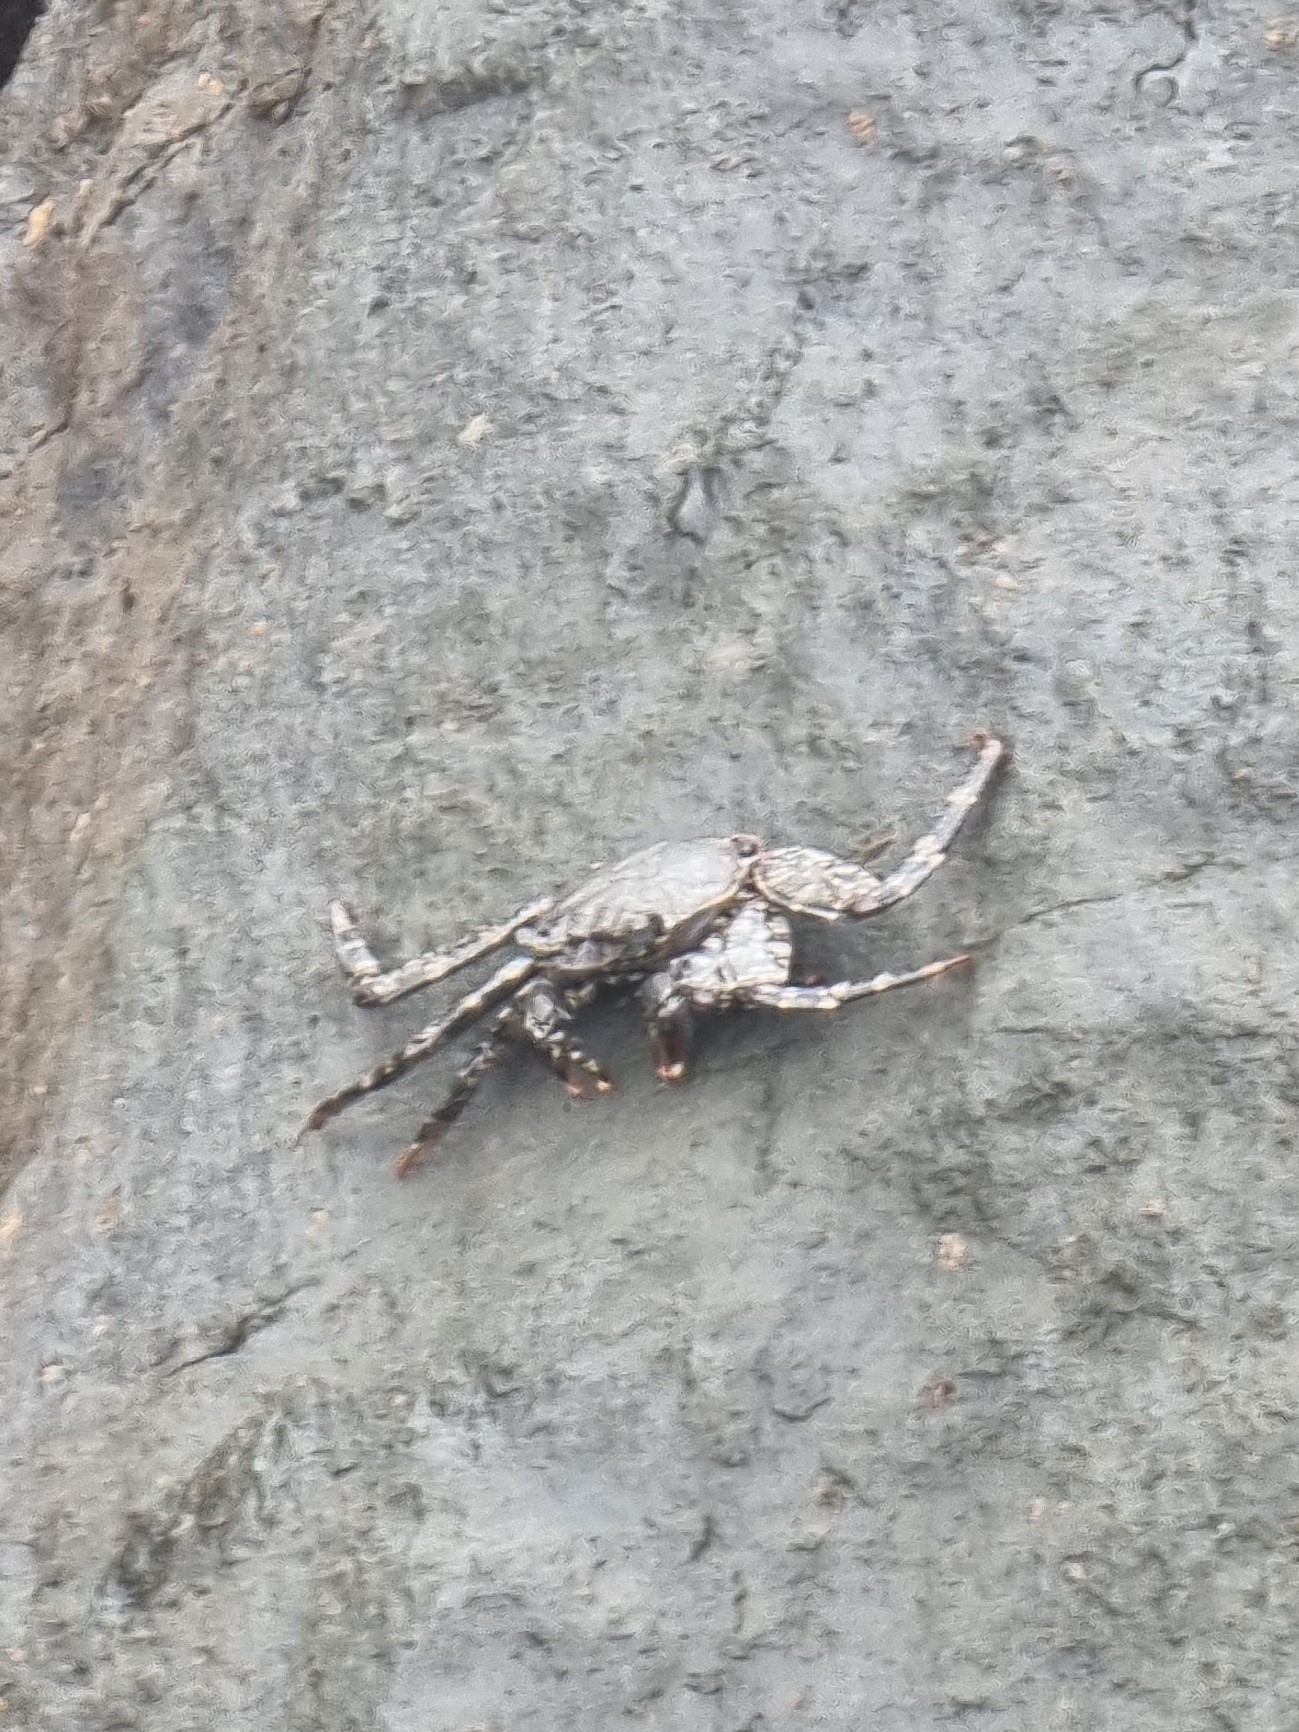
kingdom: Animalia
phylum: Arthropoda
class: Malacostraca
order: Decapoda
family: Grapsidae
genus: Grapsus
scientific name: Grapsus adscensionis
